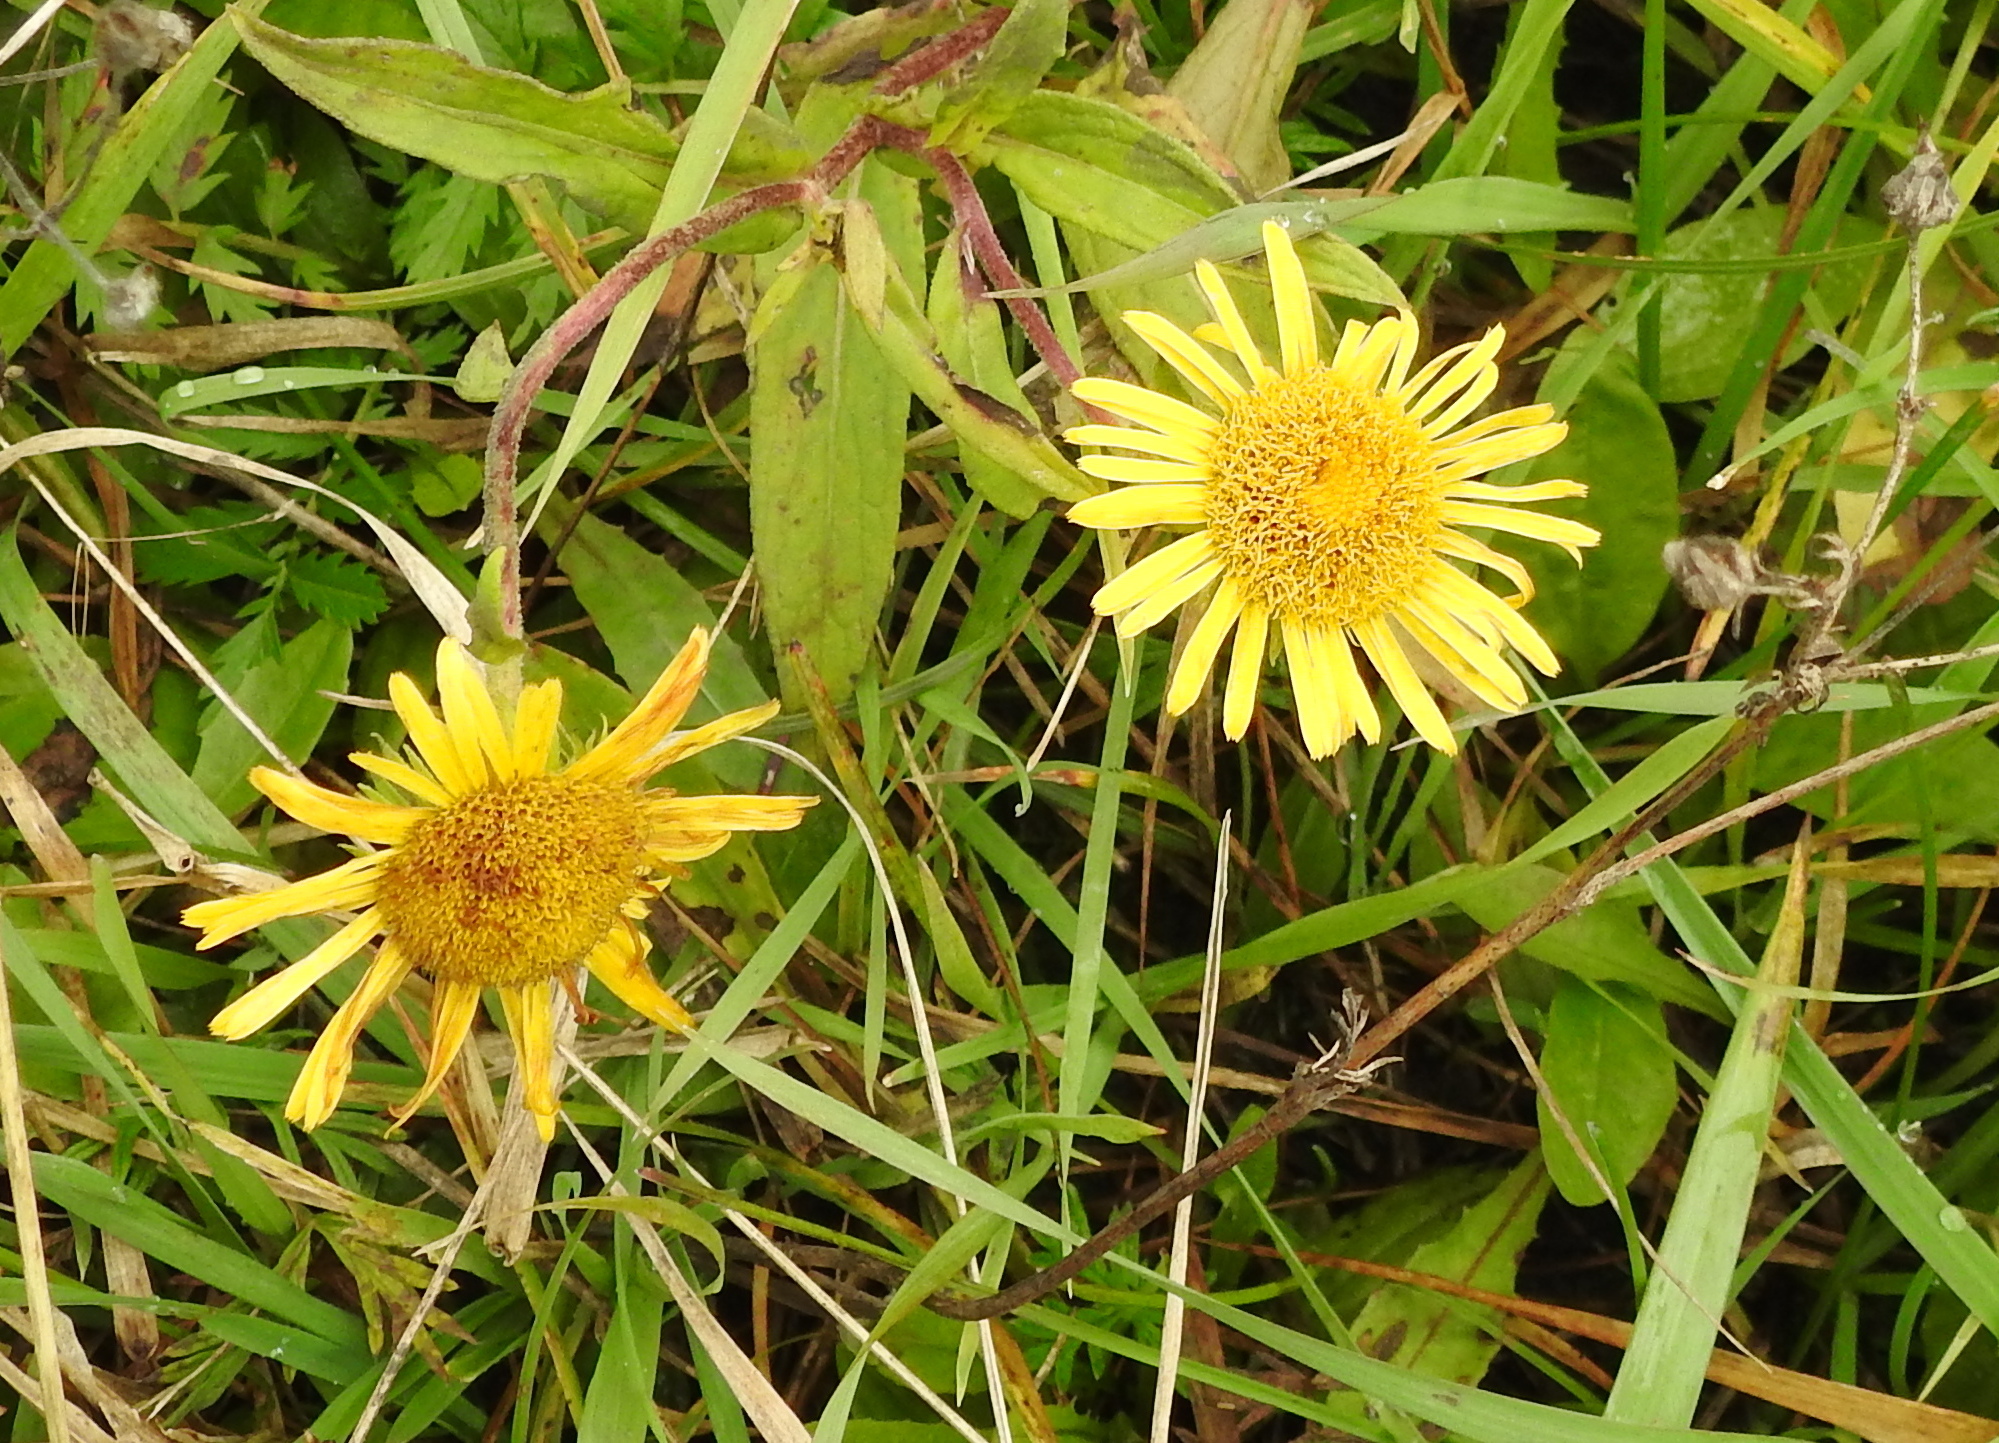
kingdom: Plantae
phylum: Tracheophyta
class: Magnoliopsida
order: Asterales
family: Asteraceae
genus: Pentanema
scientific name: Pentanema britannicum
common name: British elecampane
